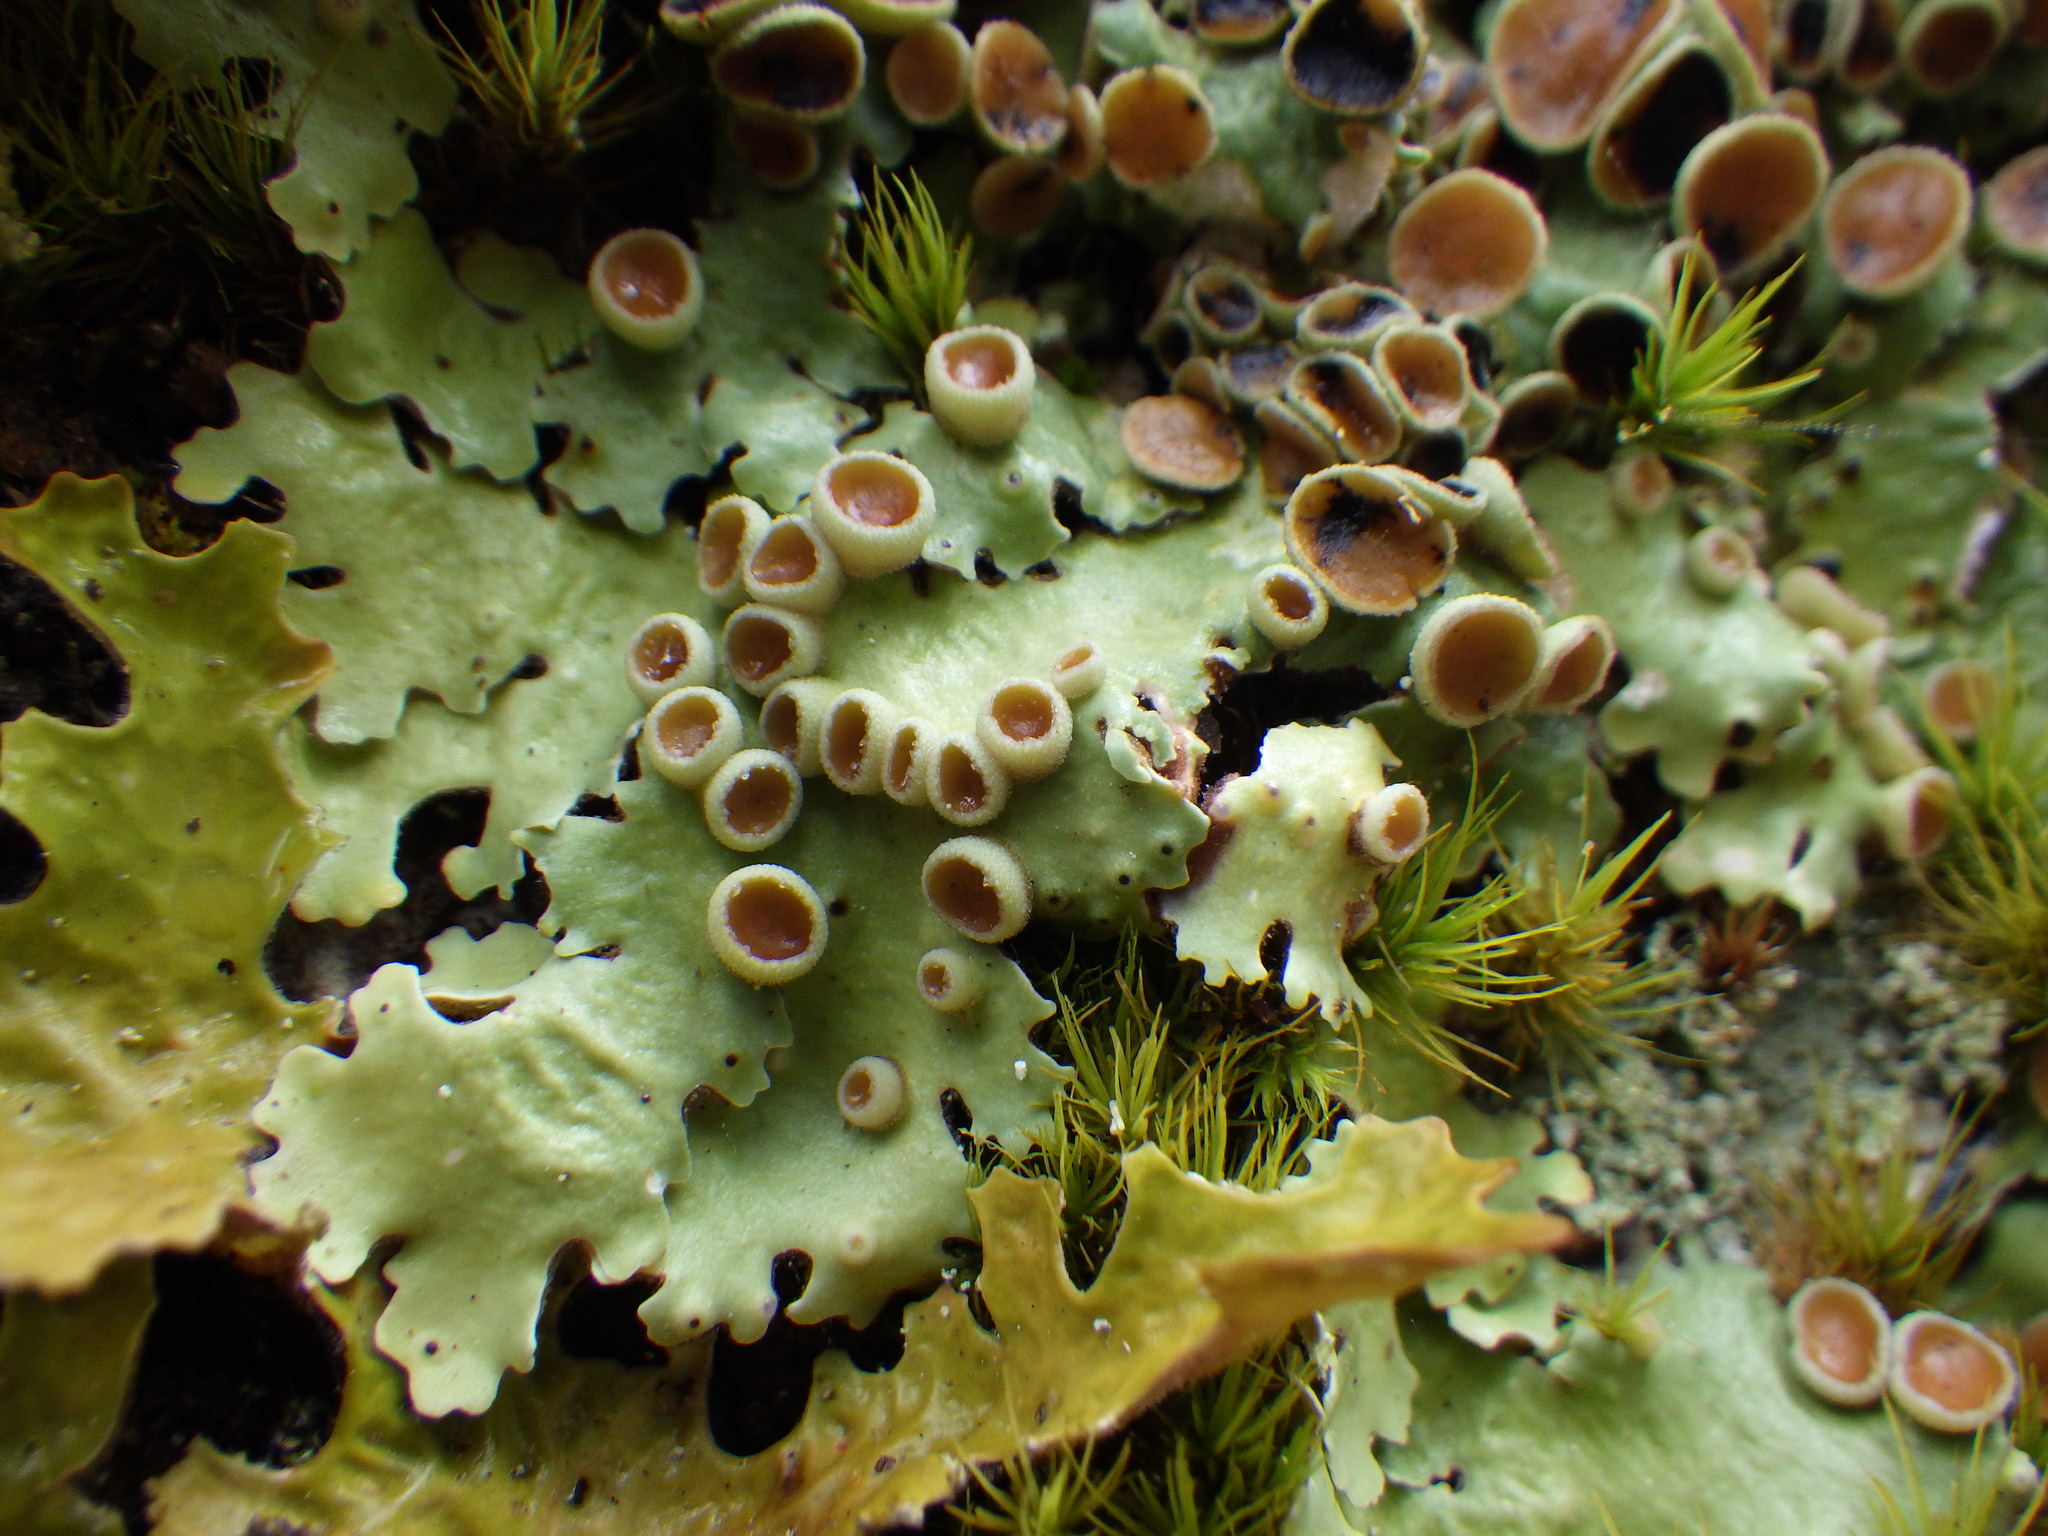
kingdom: Fungi
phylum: Ascomycota
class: Lecanoromycetes
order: Peltigerales
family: Lobariaceae
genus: Ricasolia
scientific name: Ricasolia quercizans
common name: Smooth lungwort
